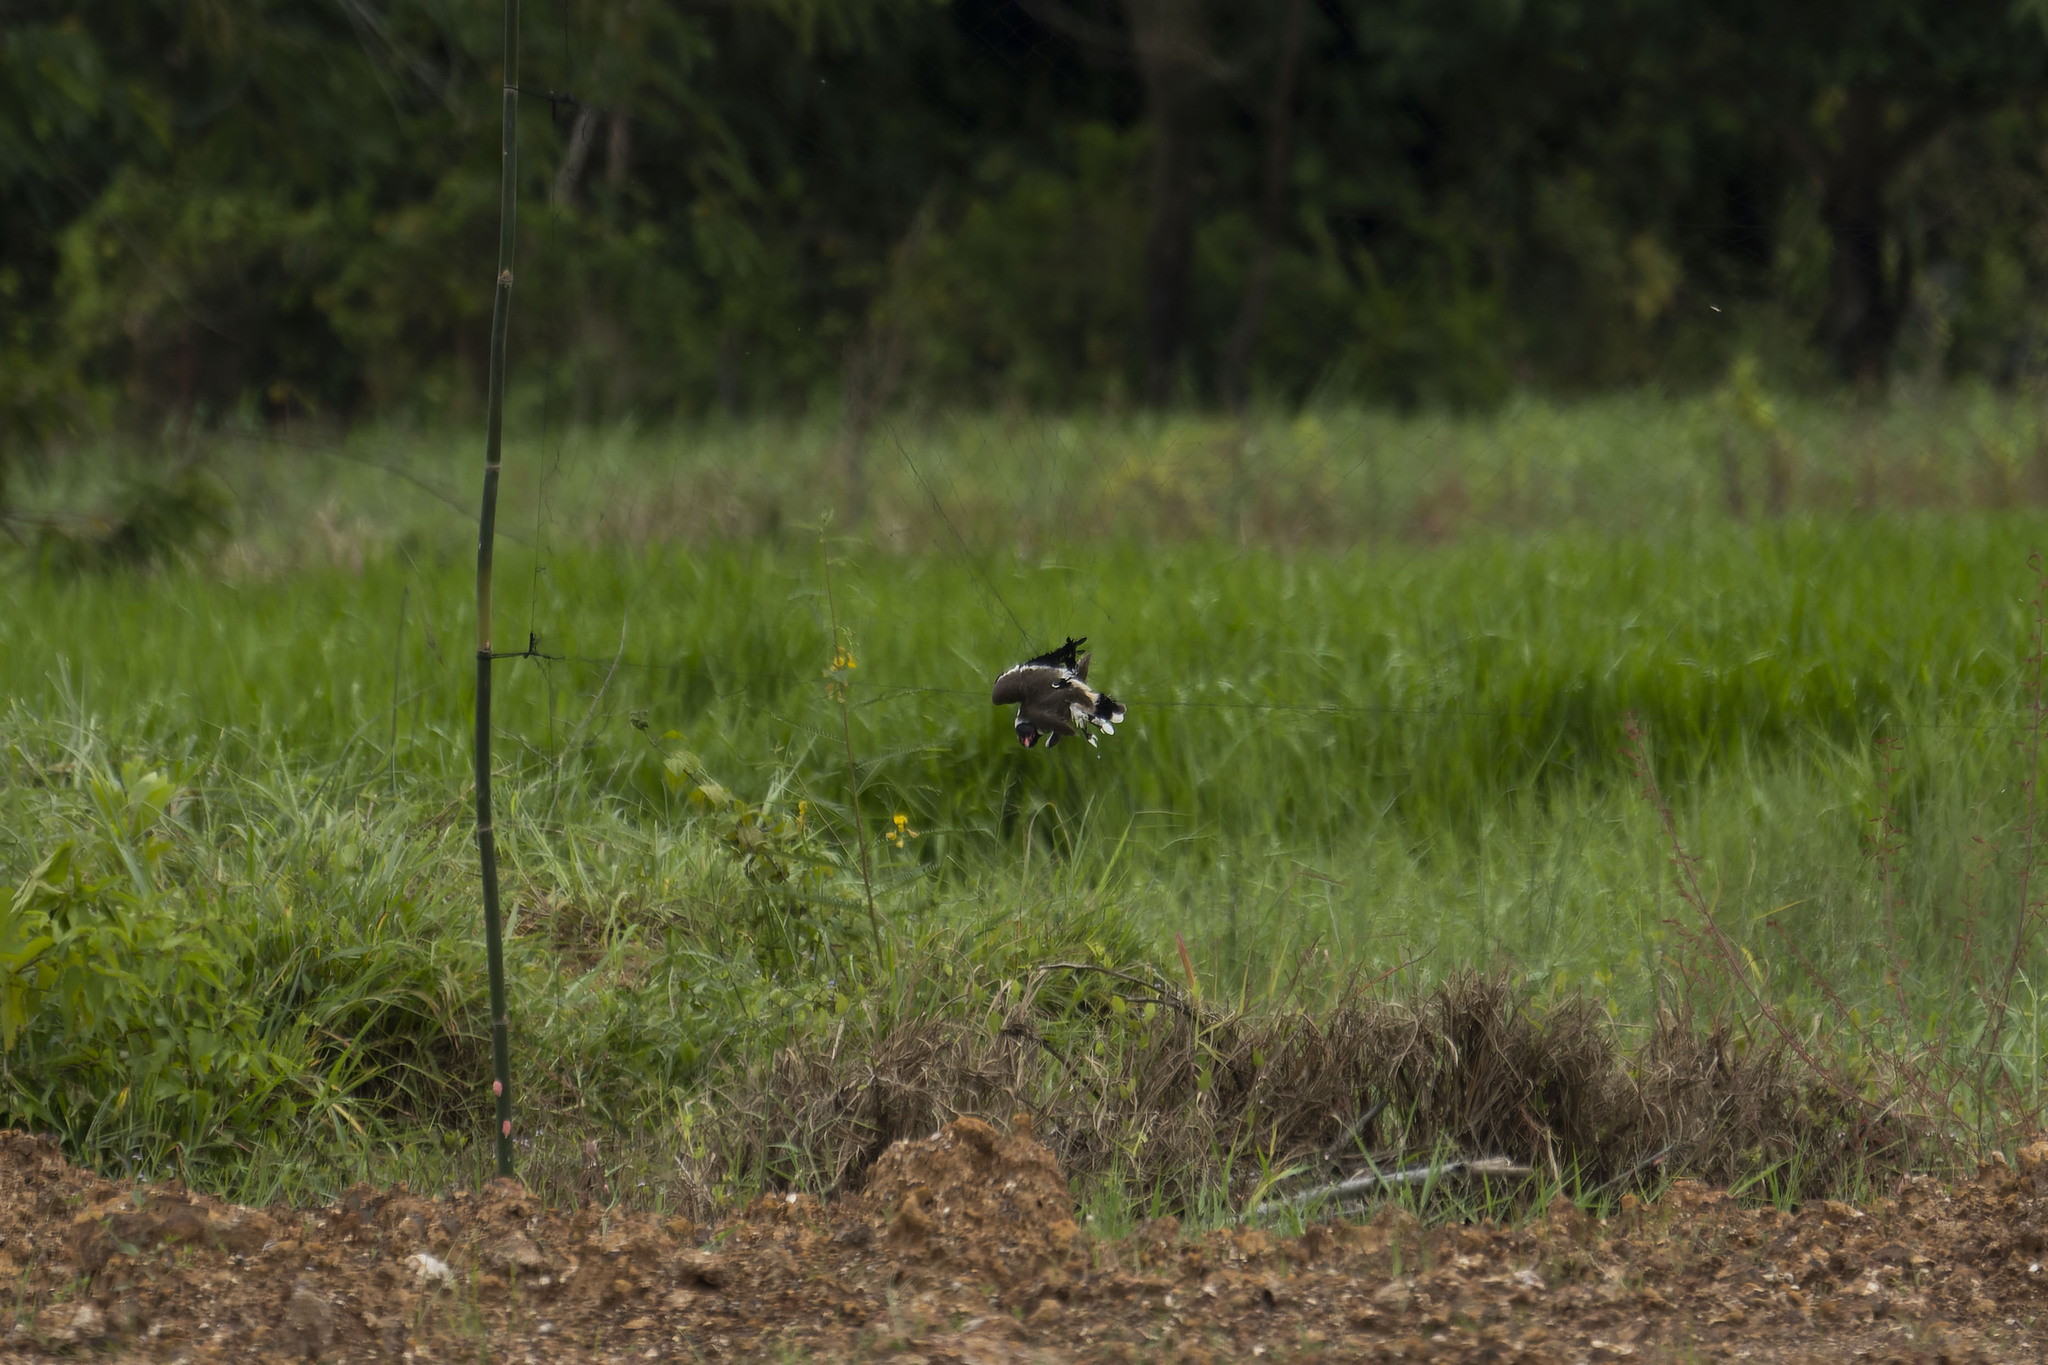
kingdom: Animalia
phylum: Chordata
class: Aves
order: Charadriiformes
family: Charadriidae
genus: Vanellus
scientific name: Vanellus indicus
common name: Red-wattled lapwing
